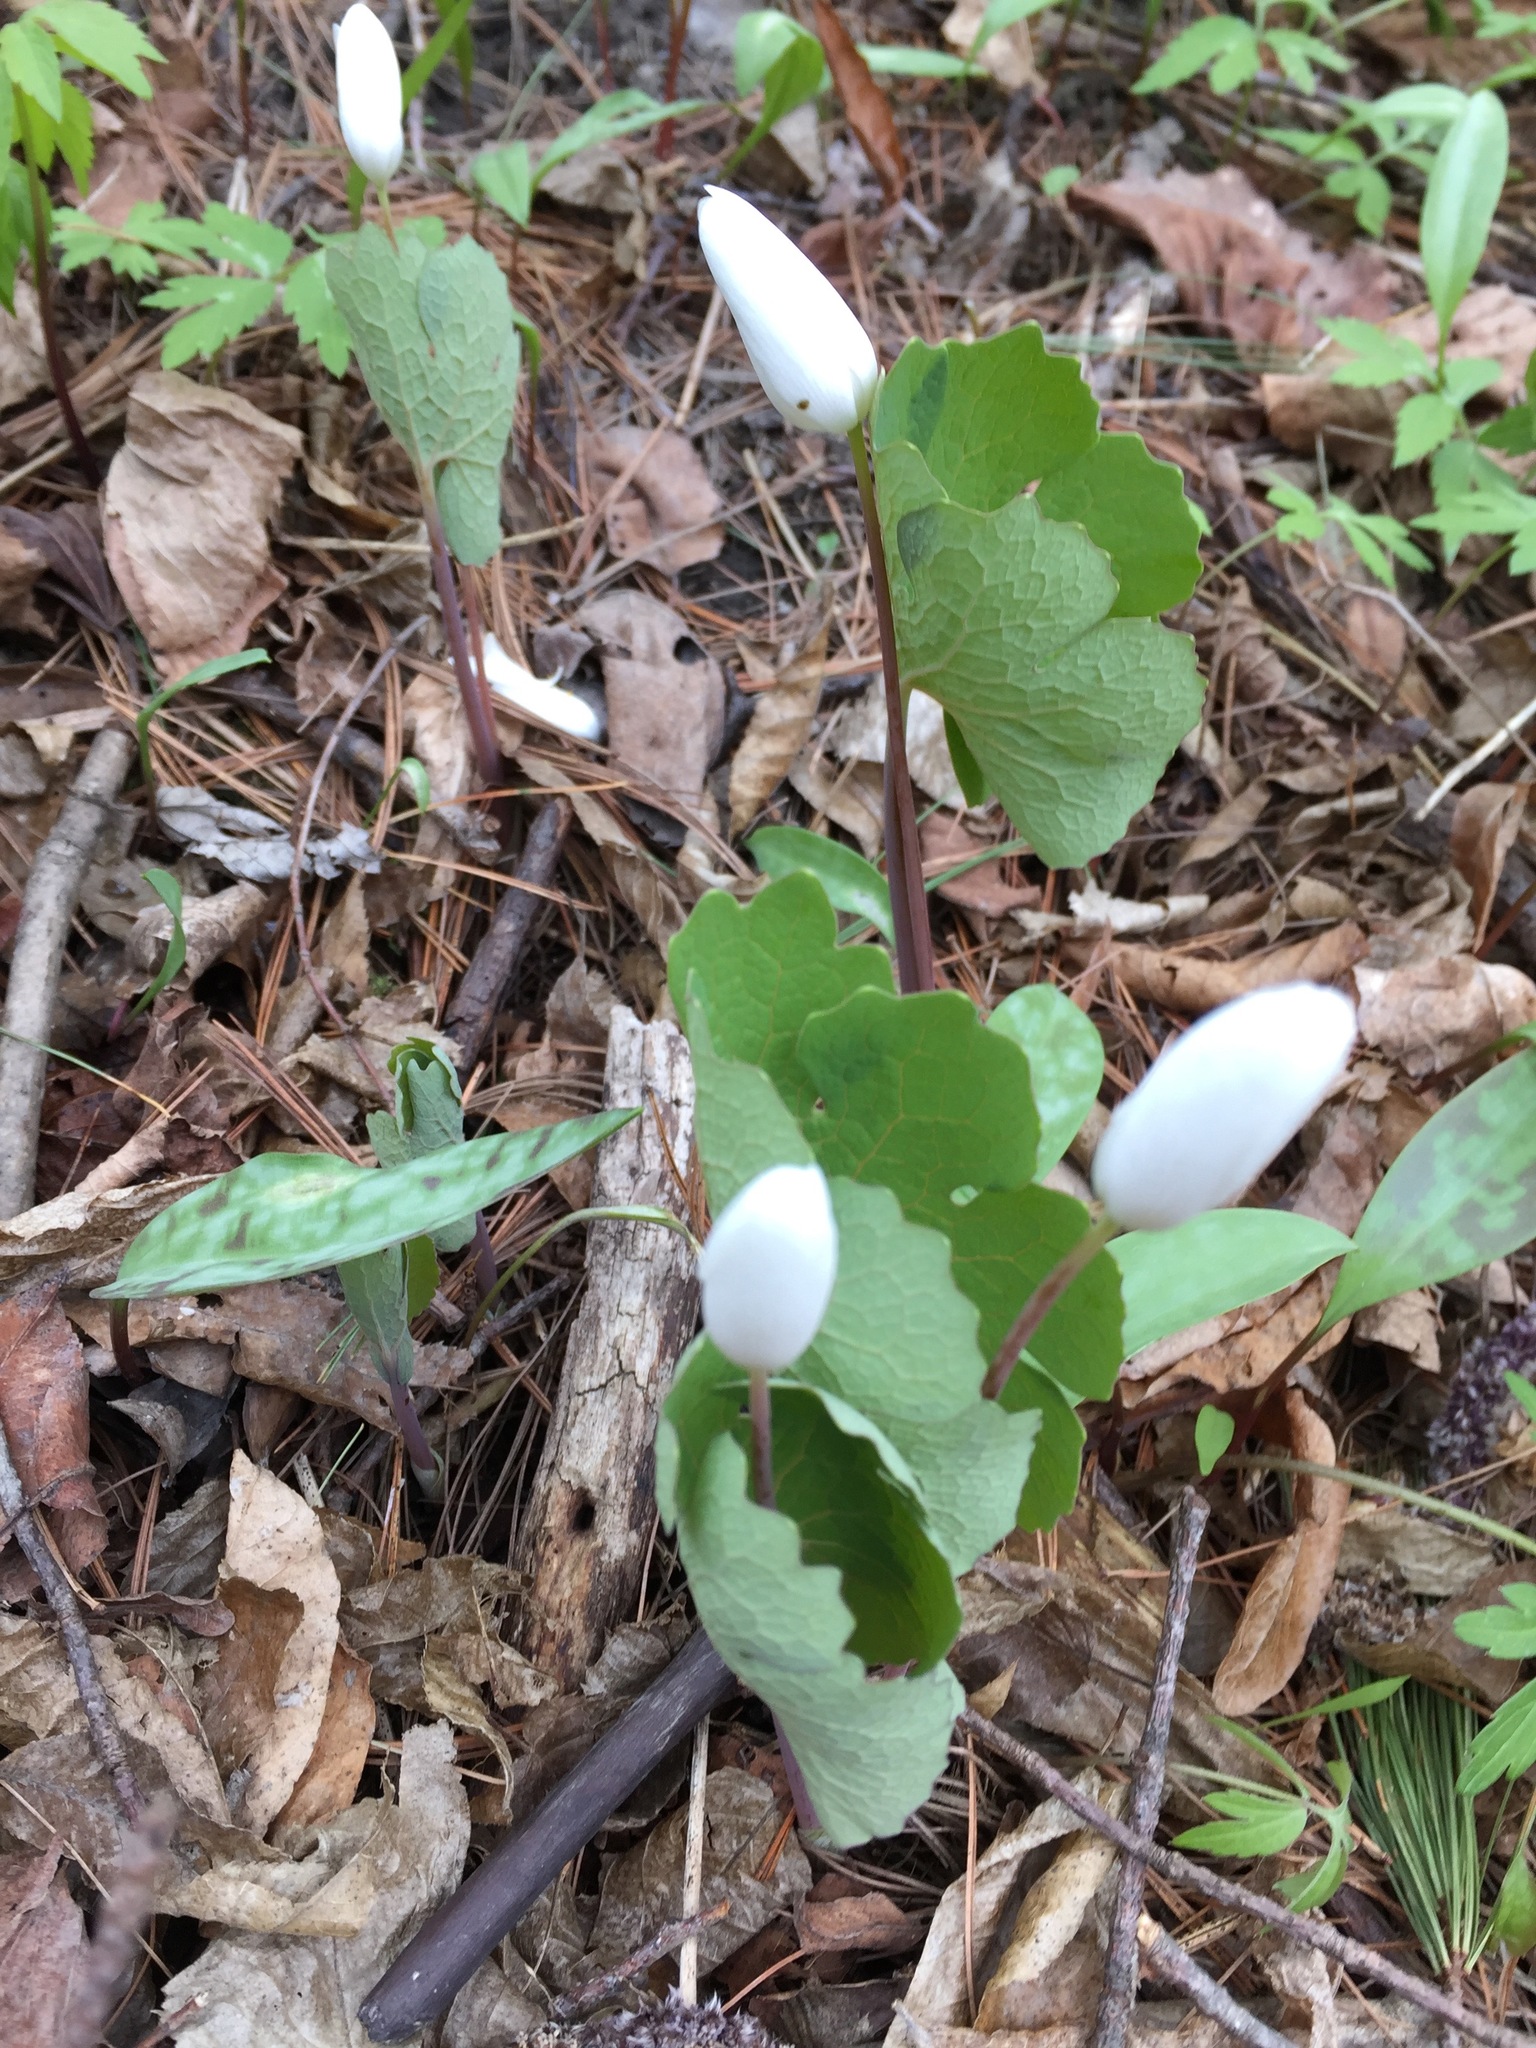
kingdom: Plantae
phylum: Tracheophyta
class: Magnoliopsida
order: Ranunculales
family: Papaveraceae
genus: Sanguinaria
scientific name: Sanguinaria canadensis
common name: Bloodroot
